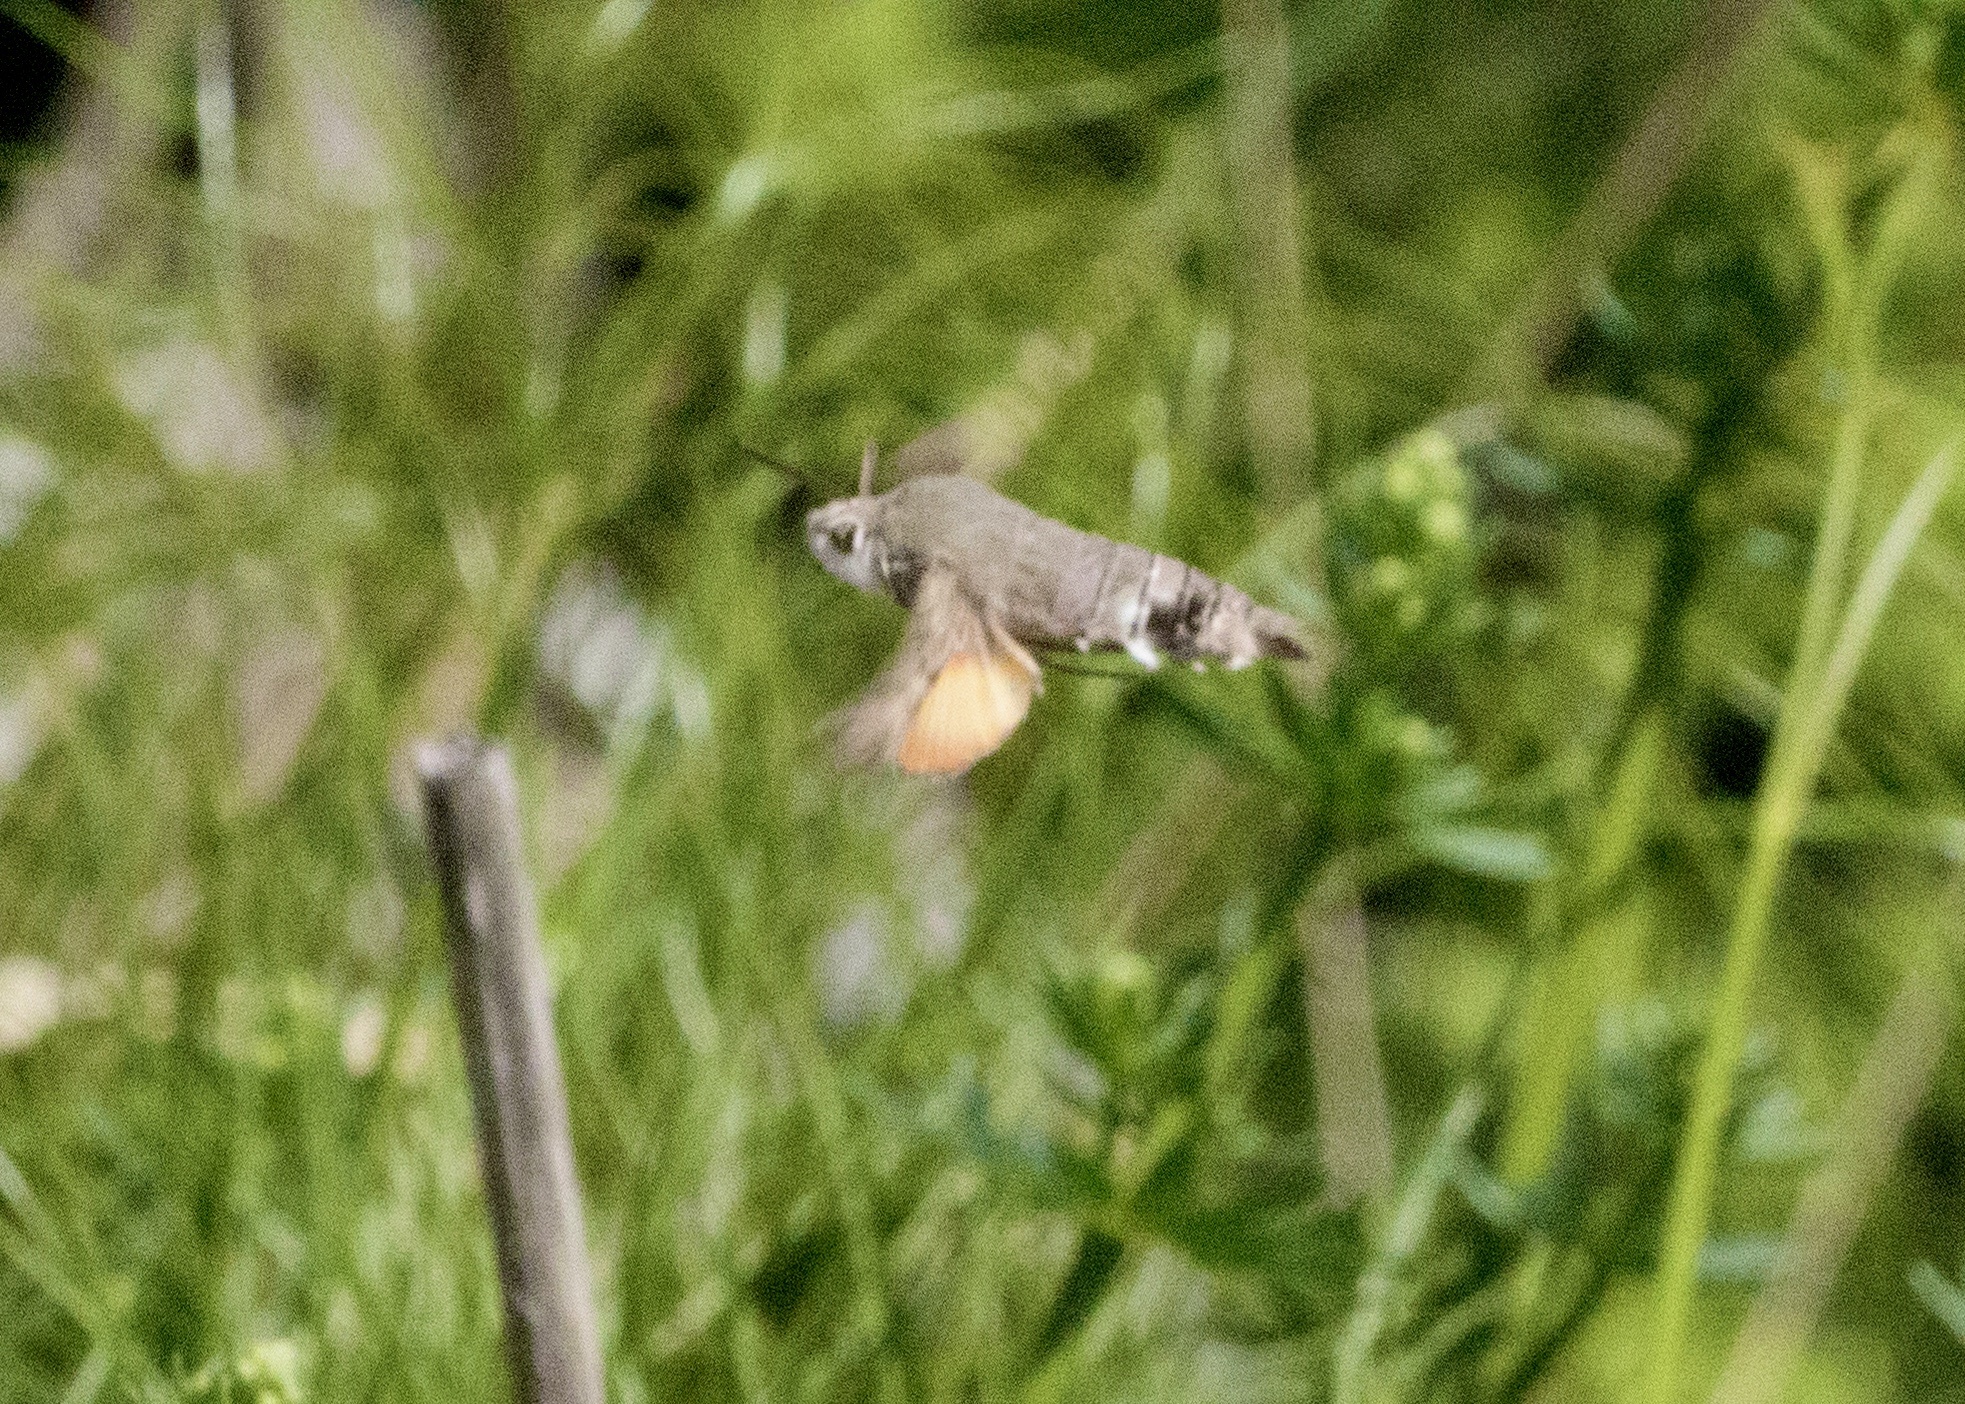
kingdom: Animalia
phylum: Arthropoda
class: Insecta
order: Lepidoptera
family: Sphingidae
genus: Macroglossum
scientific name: Macroglossum stellatarum
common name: Humming-bird hawk-moth
